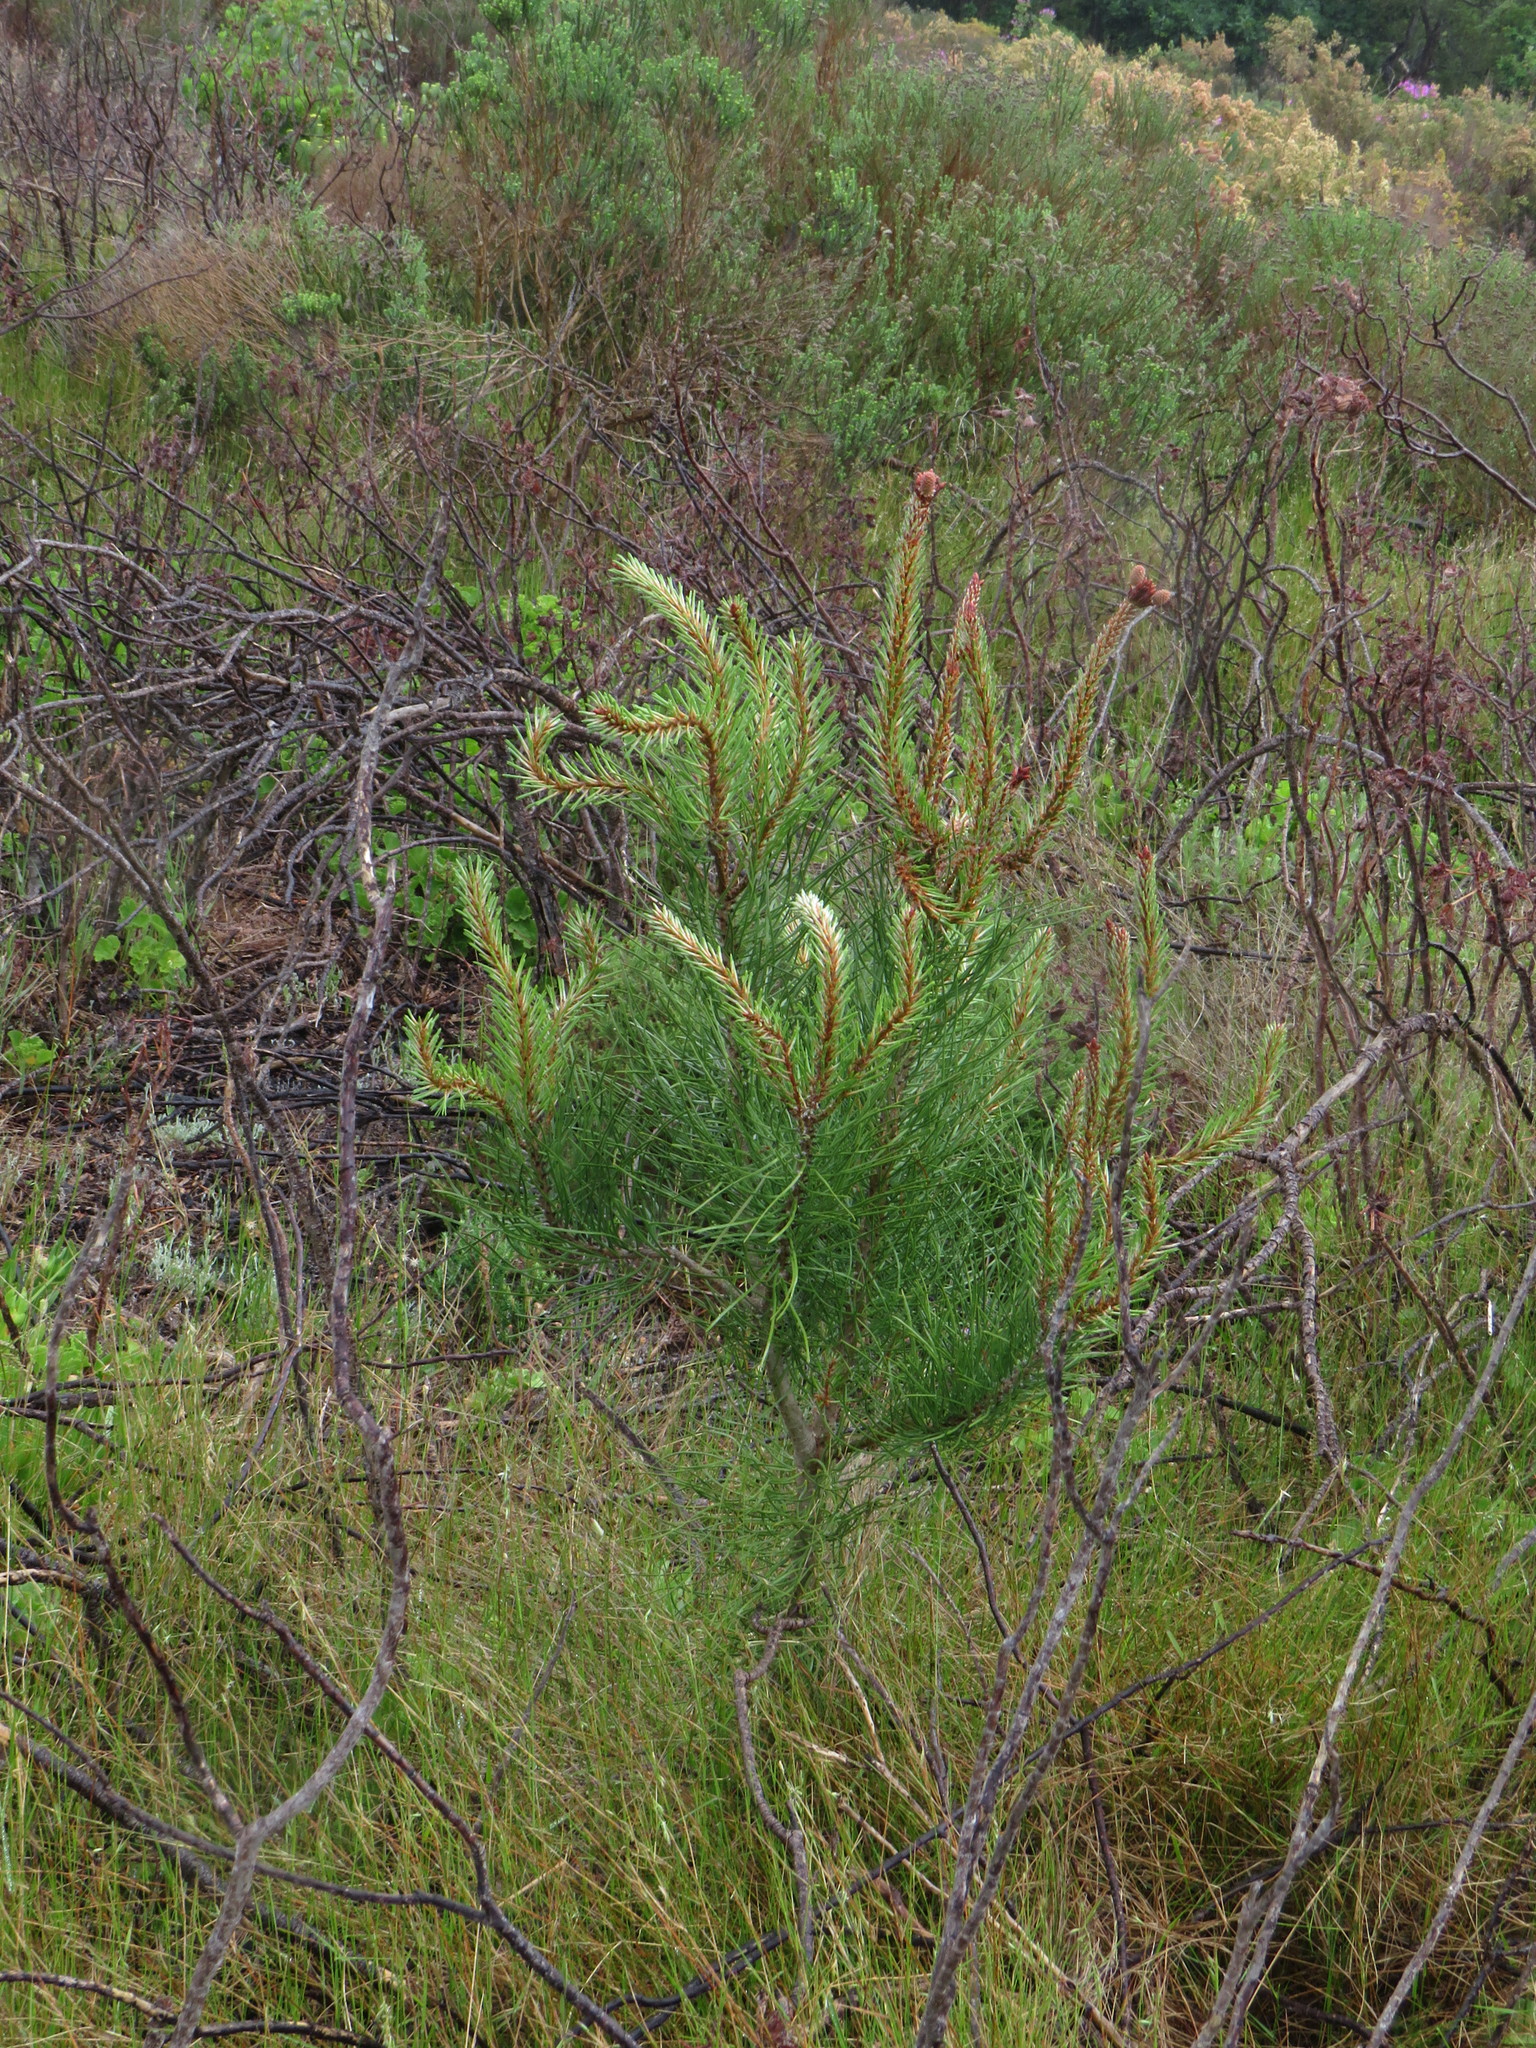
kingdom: Plantae
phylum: Tracheophyta
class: Pinopsida
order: Pinales
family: Pinaceae
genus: Pinus
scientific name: Pinus pinaster
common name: Maritime pine
